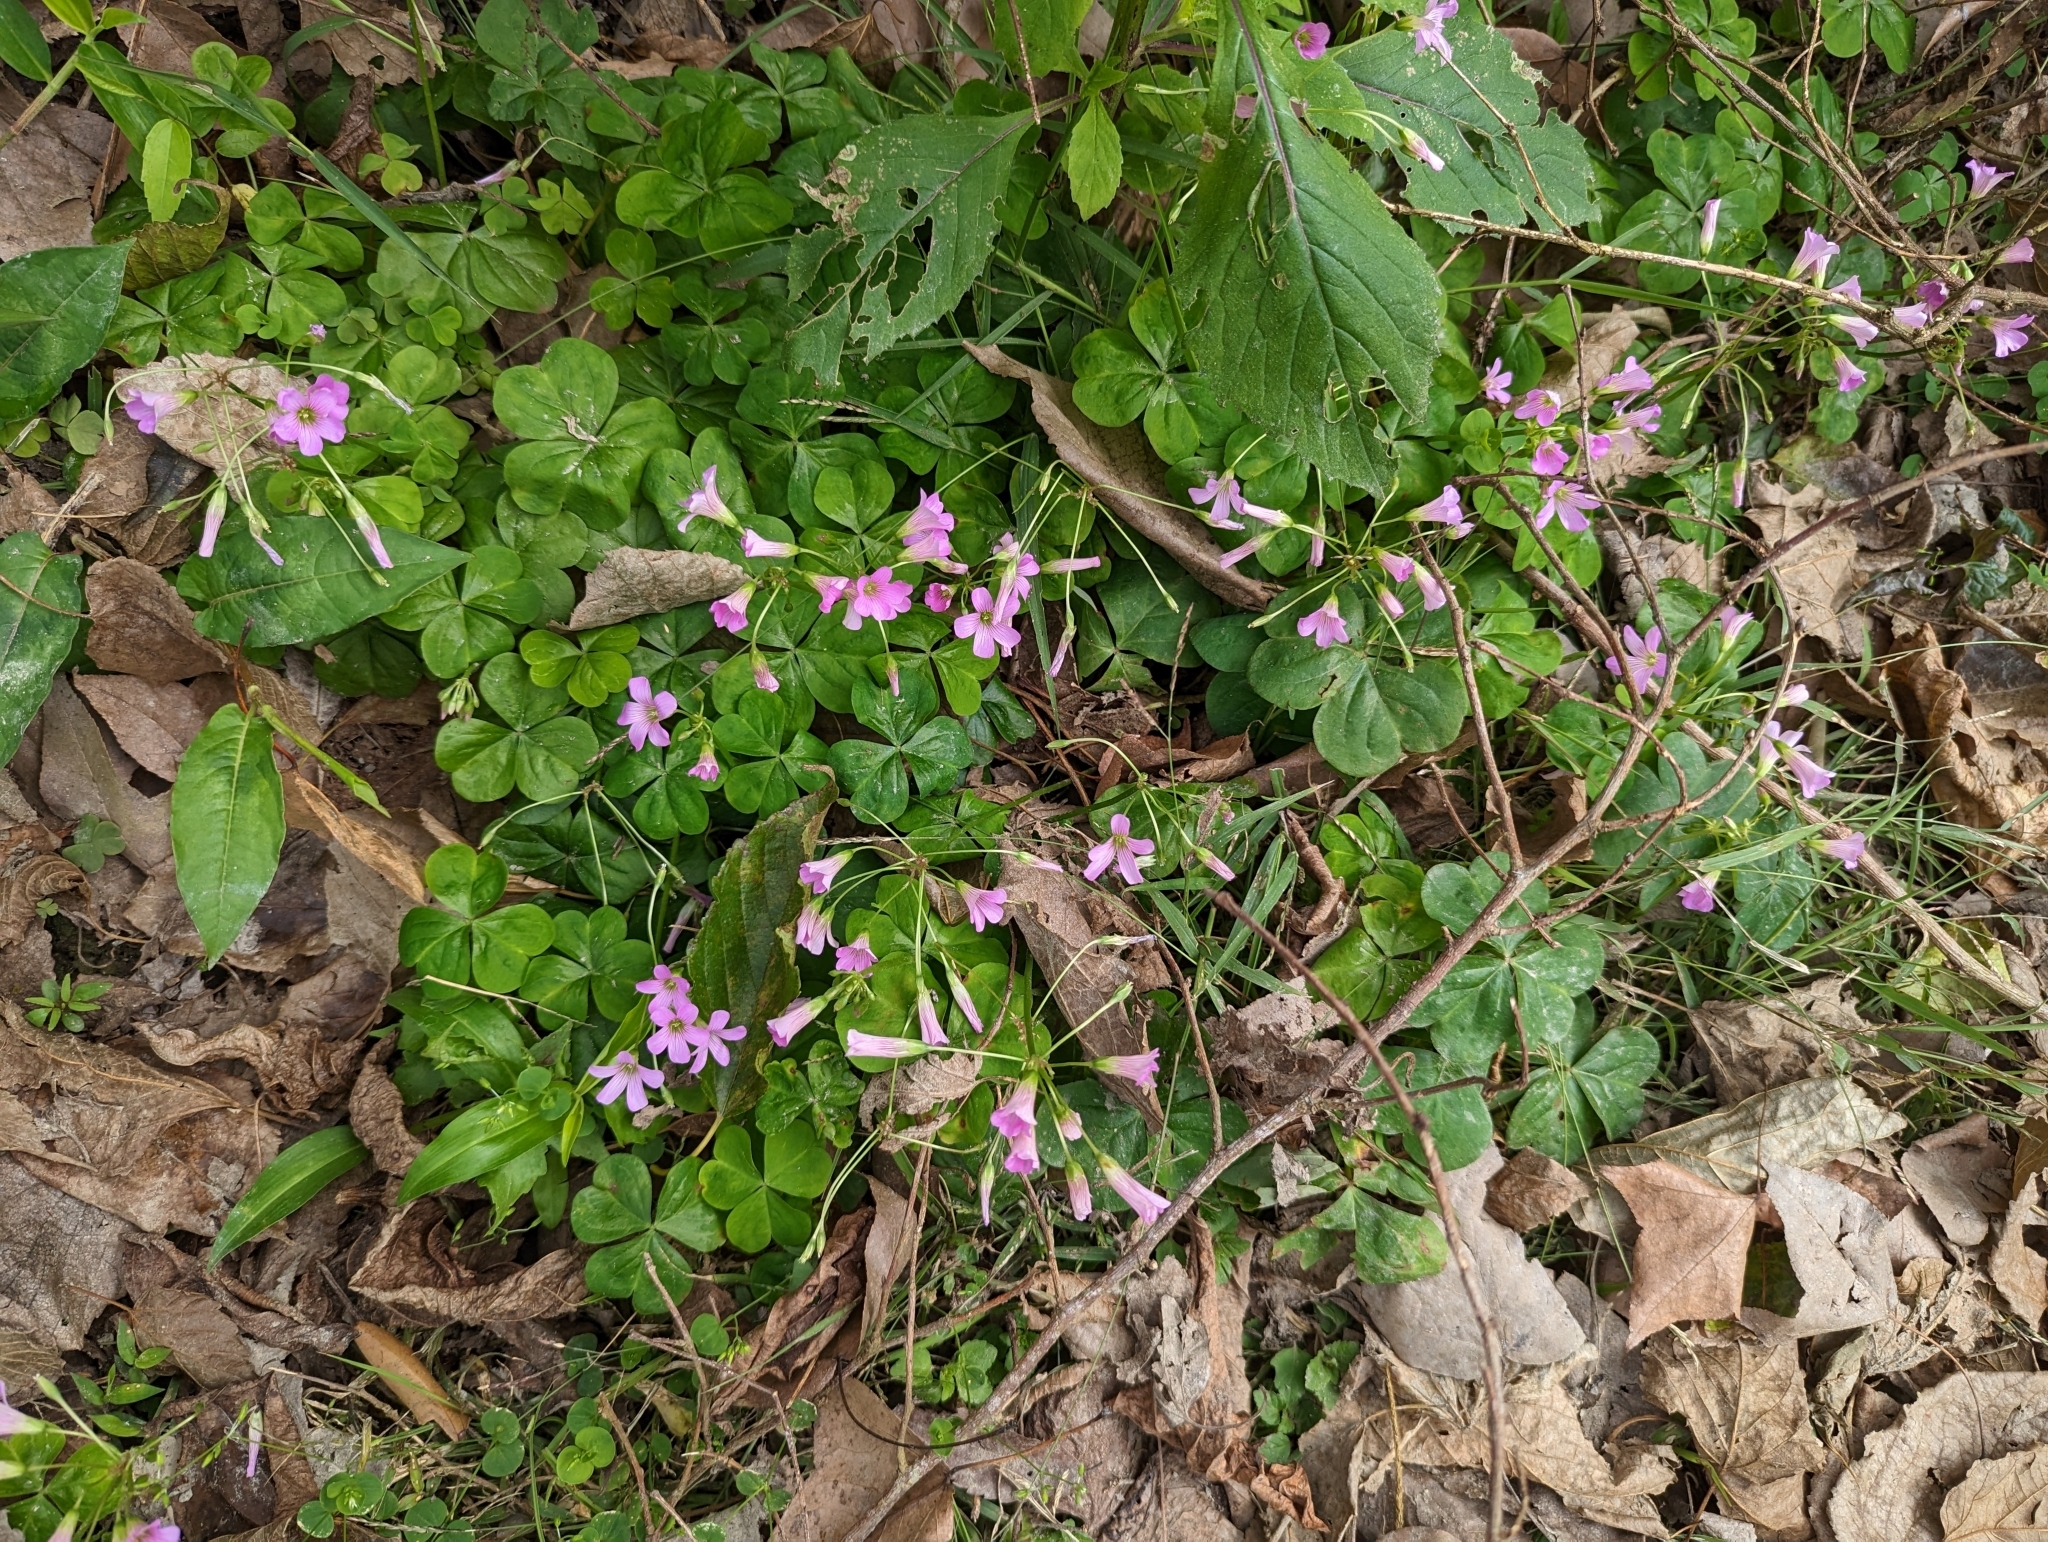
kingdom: Plantae
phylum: Tracheophyta
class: Magnoliopsida
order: Oxalidales
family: Oxalidaceae
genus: Oxalis
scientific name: Oxalis debilis
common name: Large-flowered pink-sorrel
